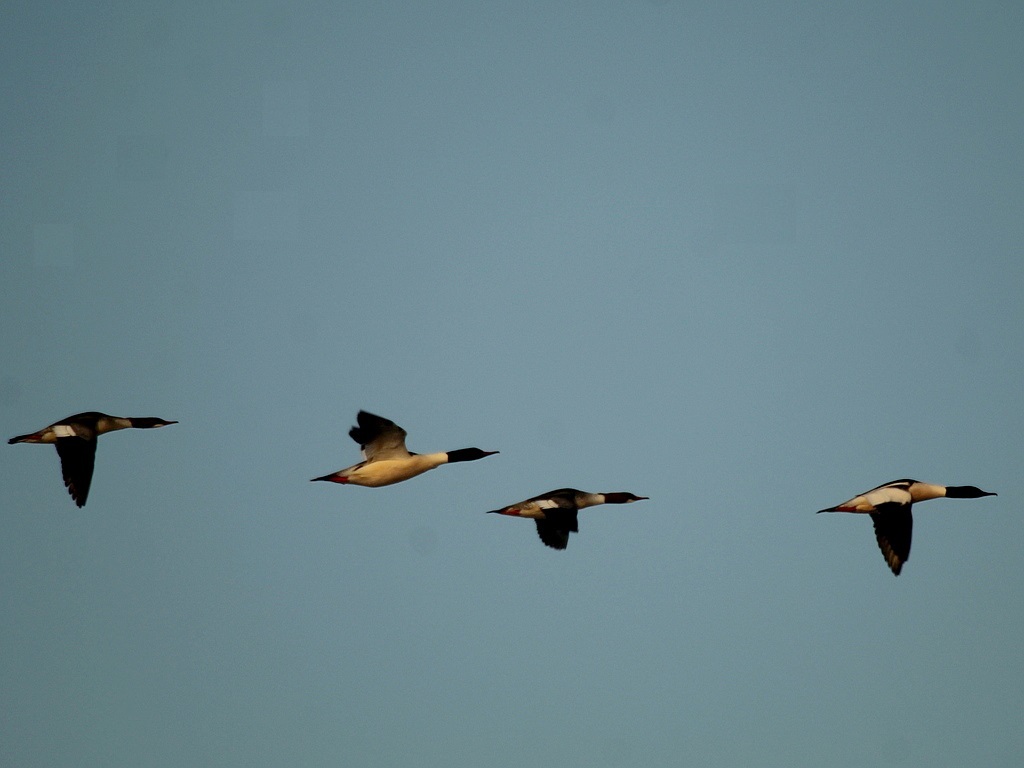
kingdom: Animalia
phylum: Chordata
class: Aves
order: Anseriformes
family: Anatidae
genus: Mergus
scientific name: Mergus merganser
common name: Common merganser
